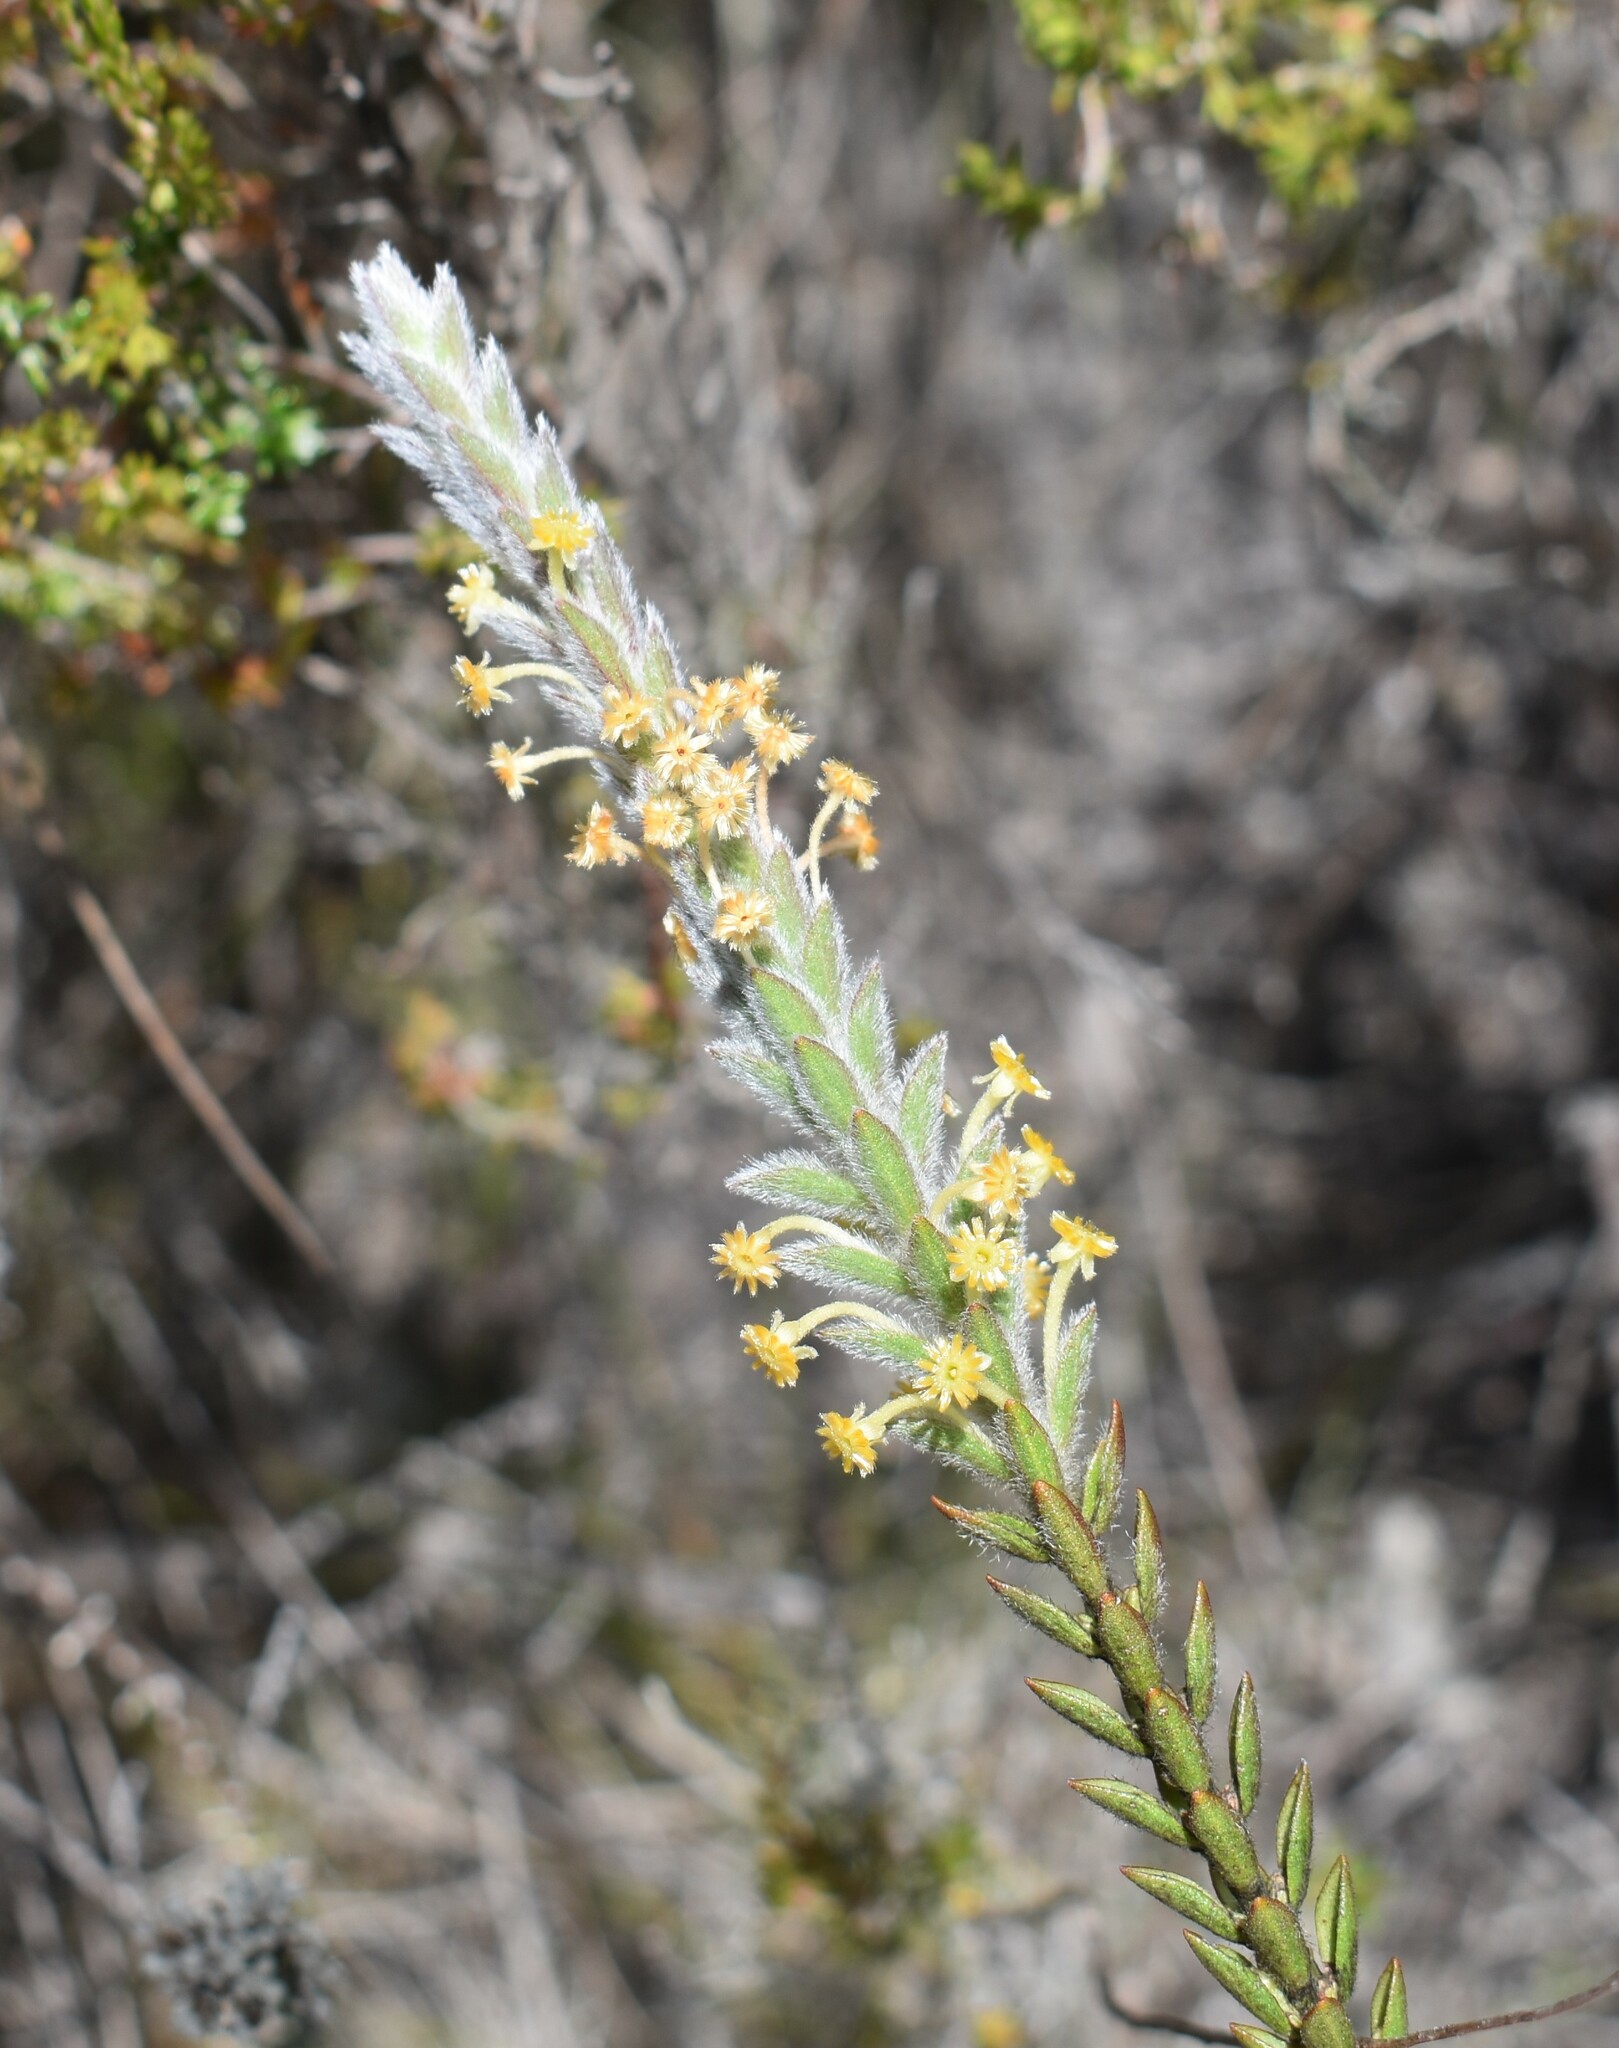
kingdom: Plantae
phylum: Tracheophyta
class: Magnoliopsida
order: Malvales
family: Thymelaeaceae
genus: Struthiola
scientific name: Struthiola tomentosa
